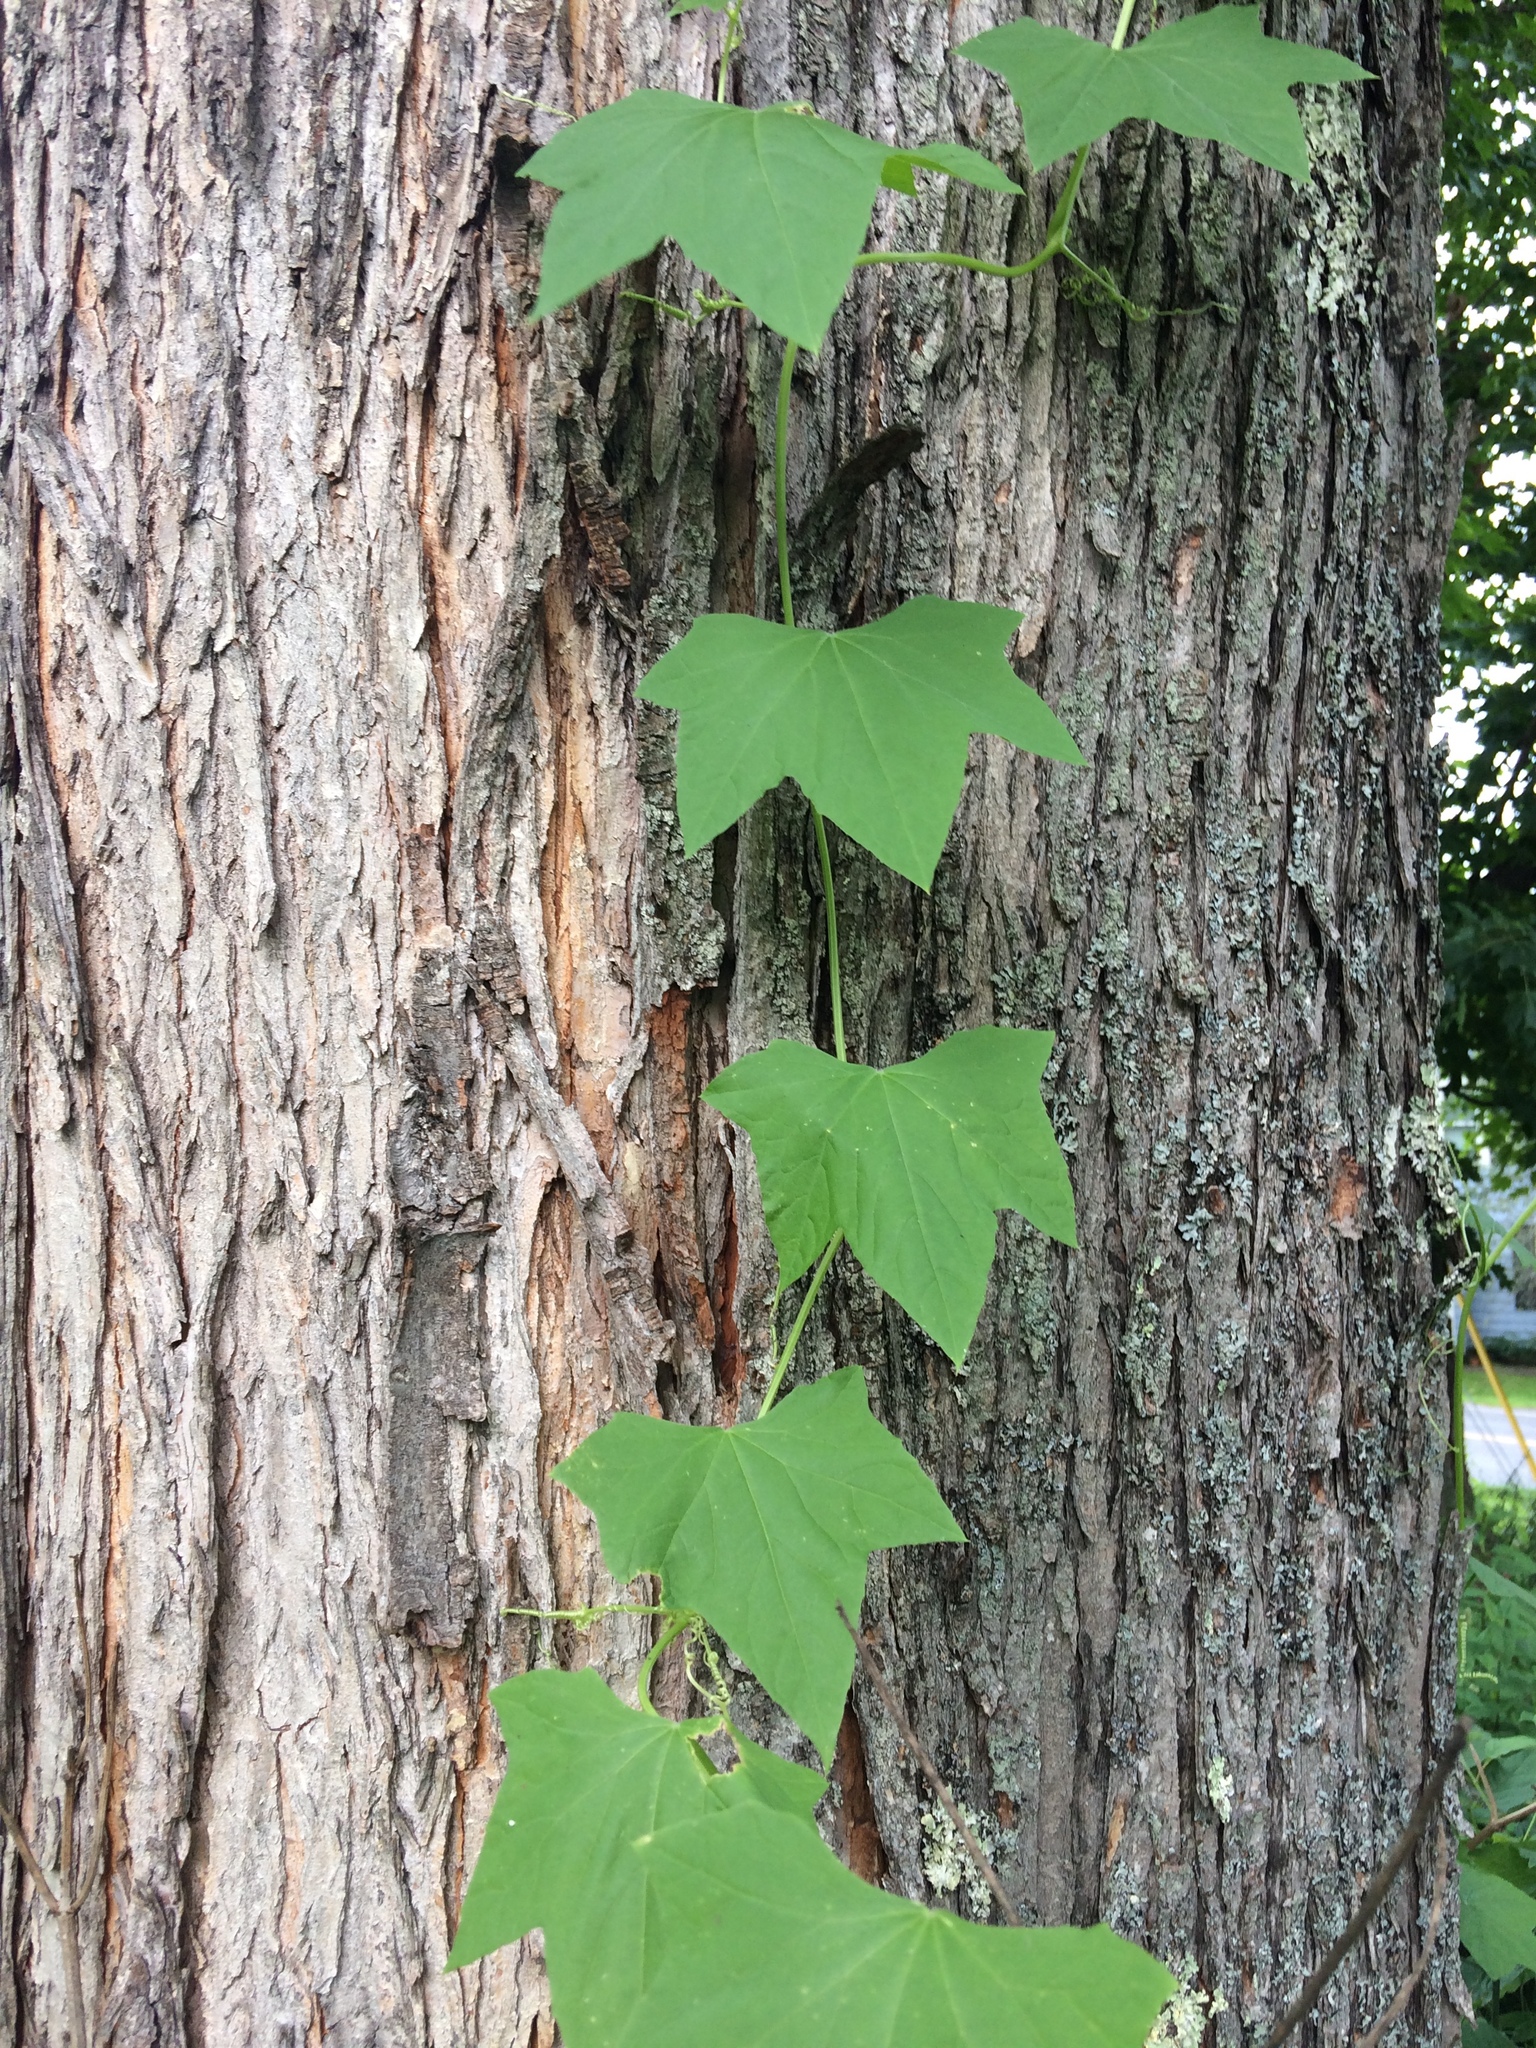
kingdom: Plantae
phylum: Tracheophyta
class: Magnoliopsida
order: Cucurbitales
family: Cucurbitaceae
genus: Echinocystis
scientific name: Echinocystis lobata
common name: Wild cucumber
